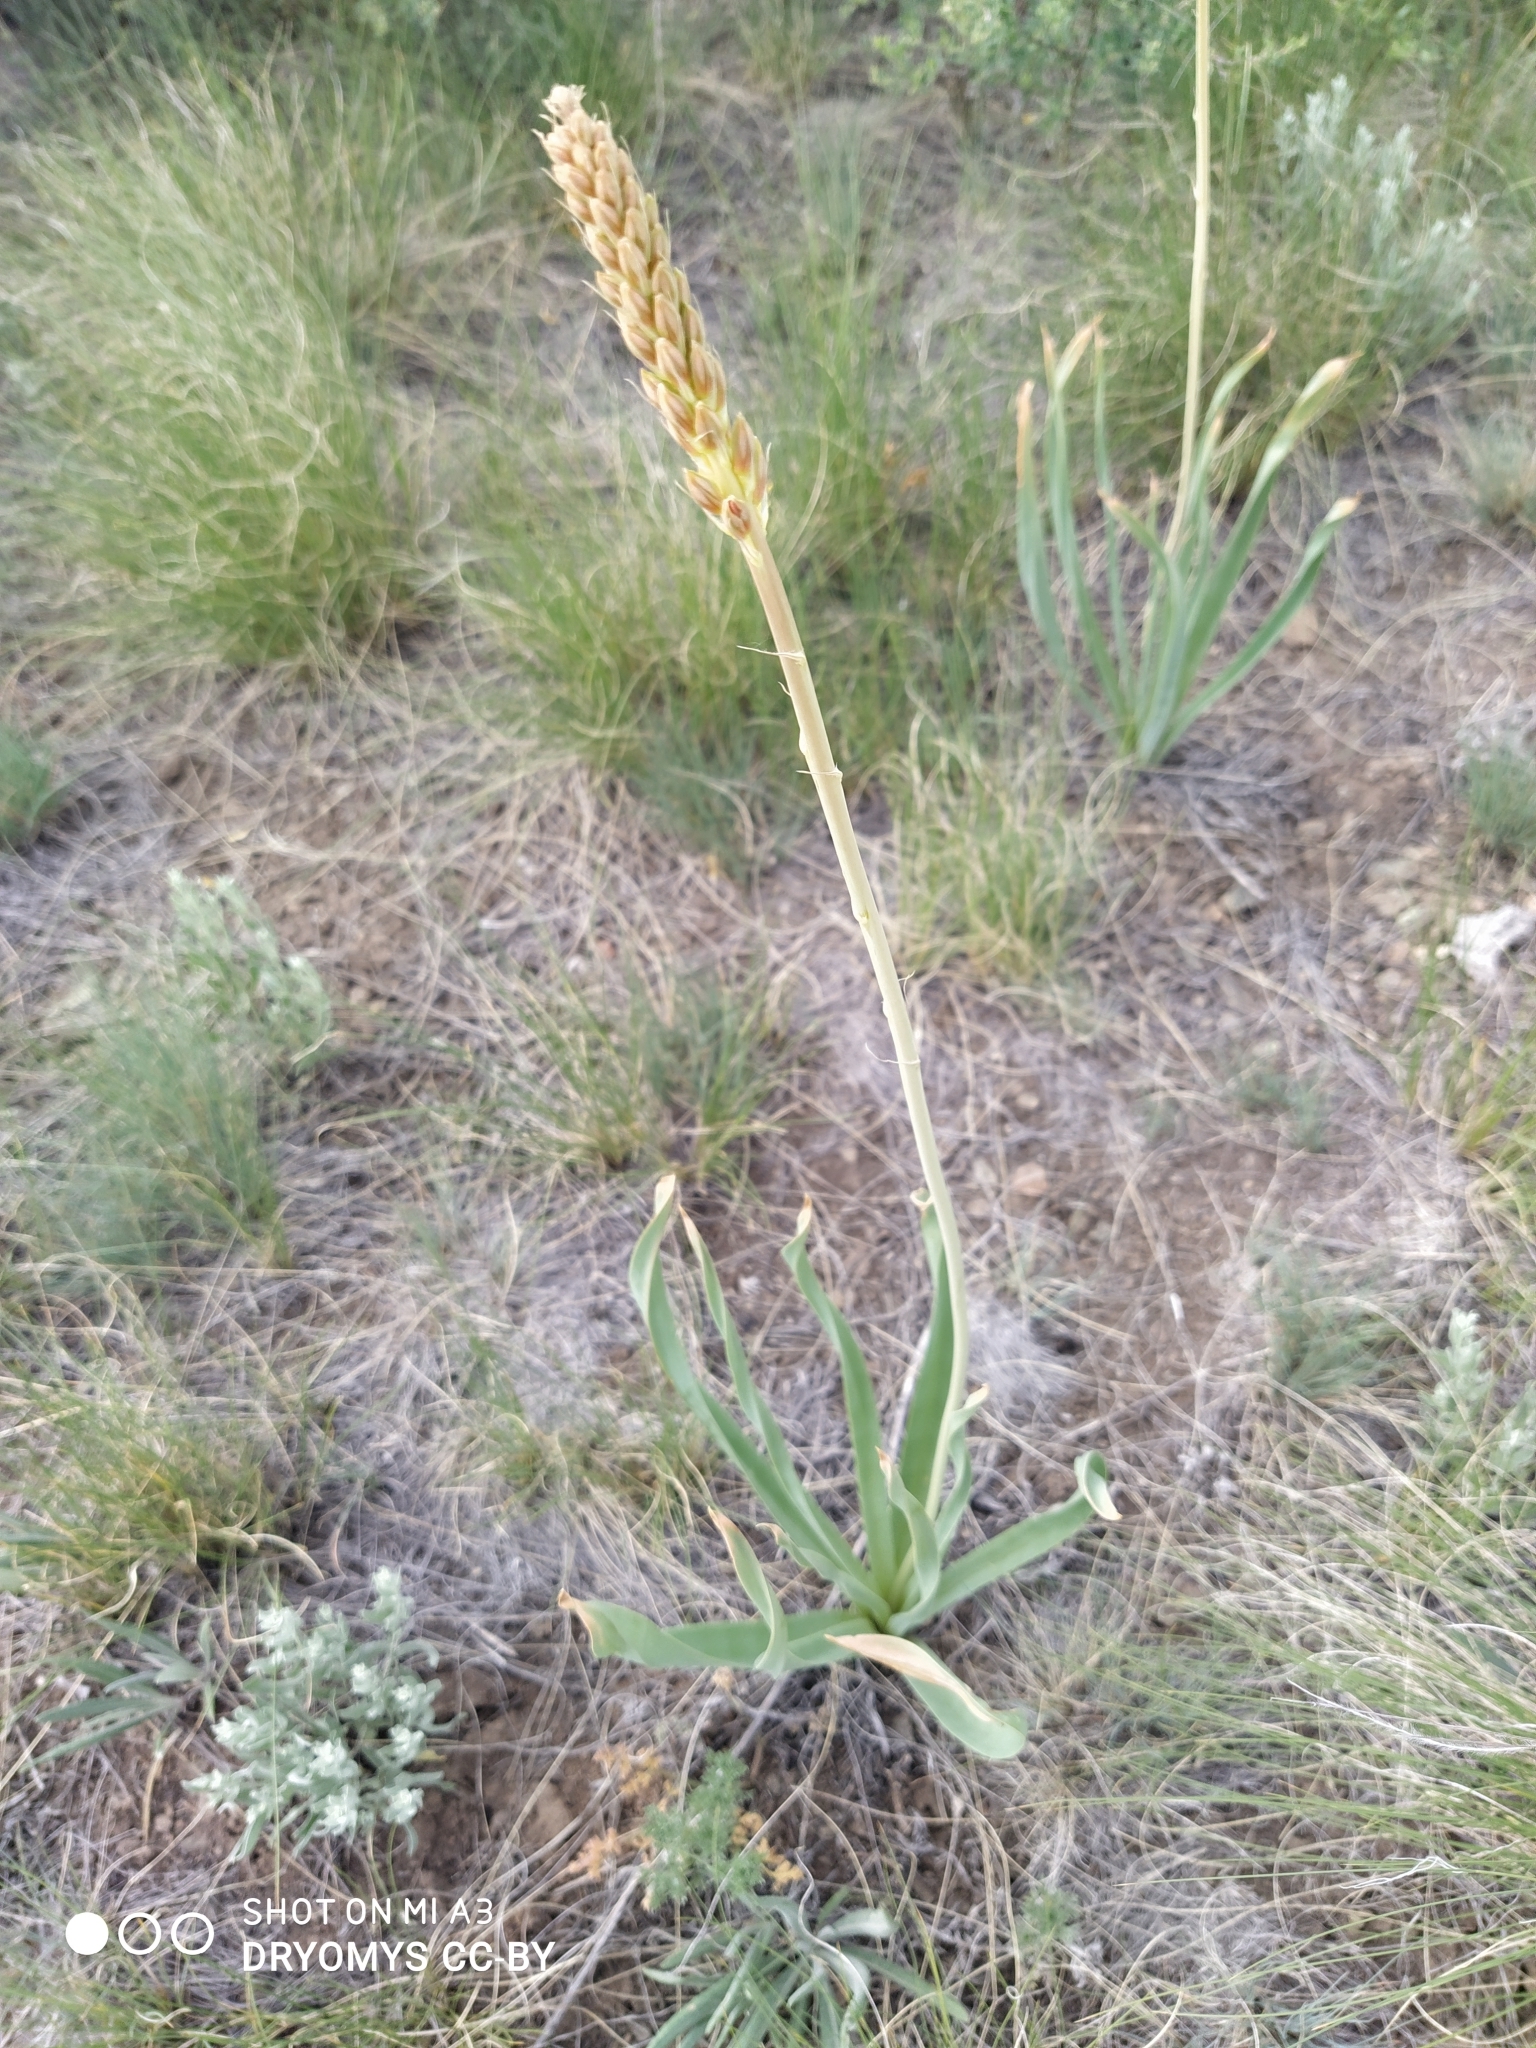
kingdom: Plantae
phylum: Tracheophyta
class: Liliopsida
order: Asparagales
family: Asphodelaceae
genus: Eremurus
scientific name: Eremurus altaicus
